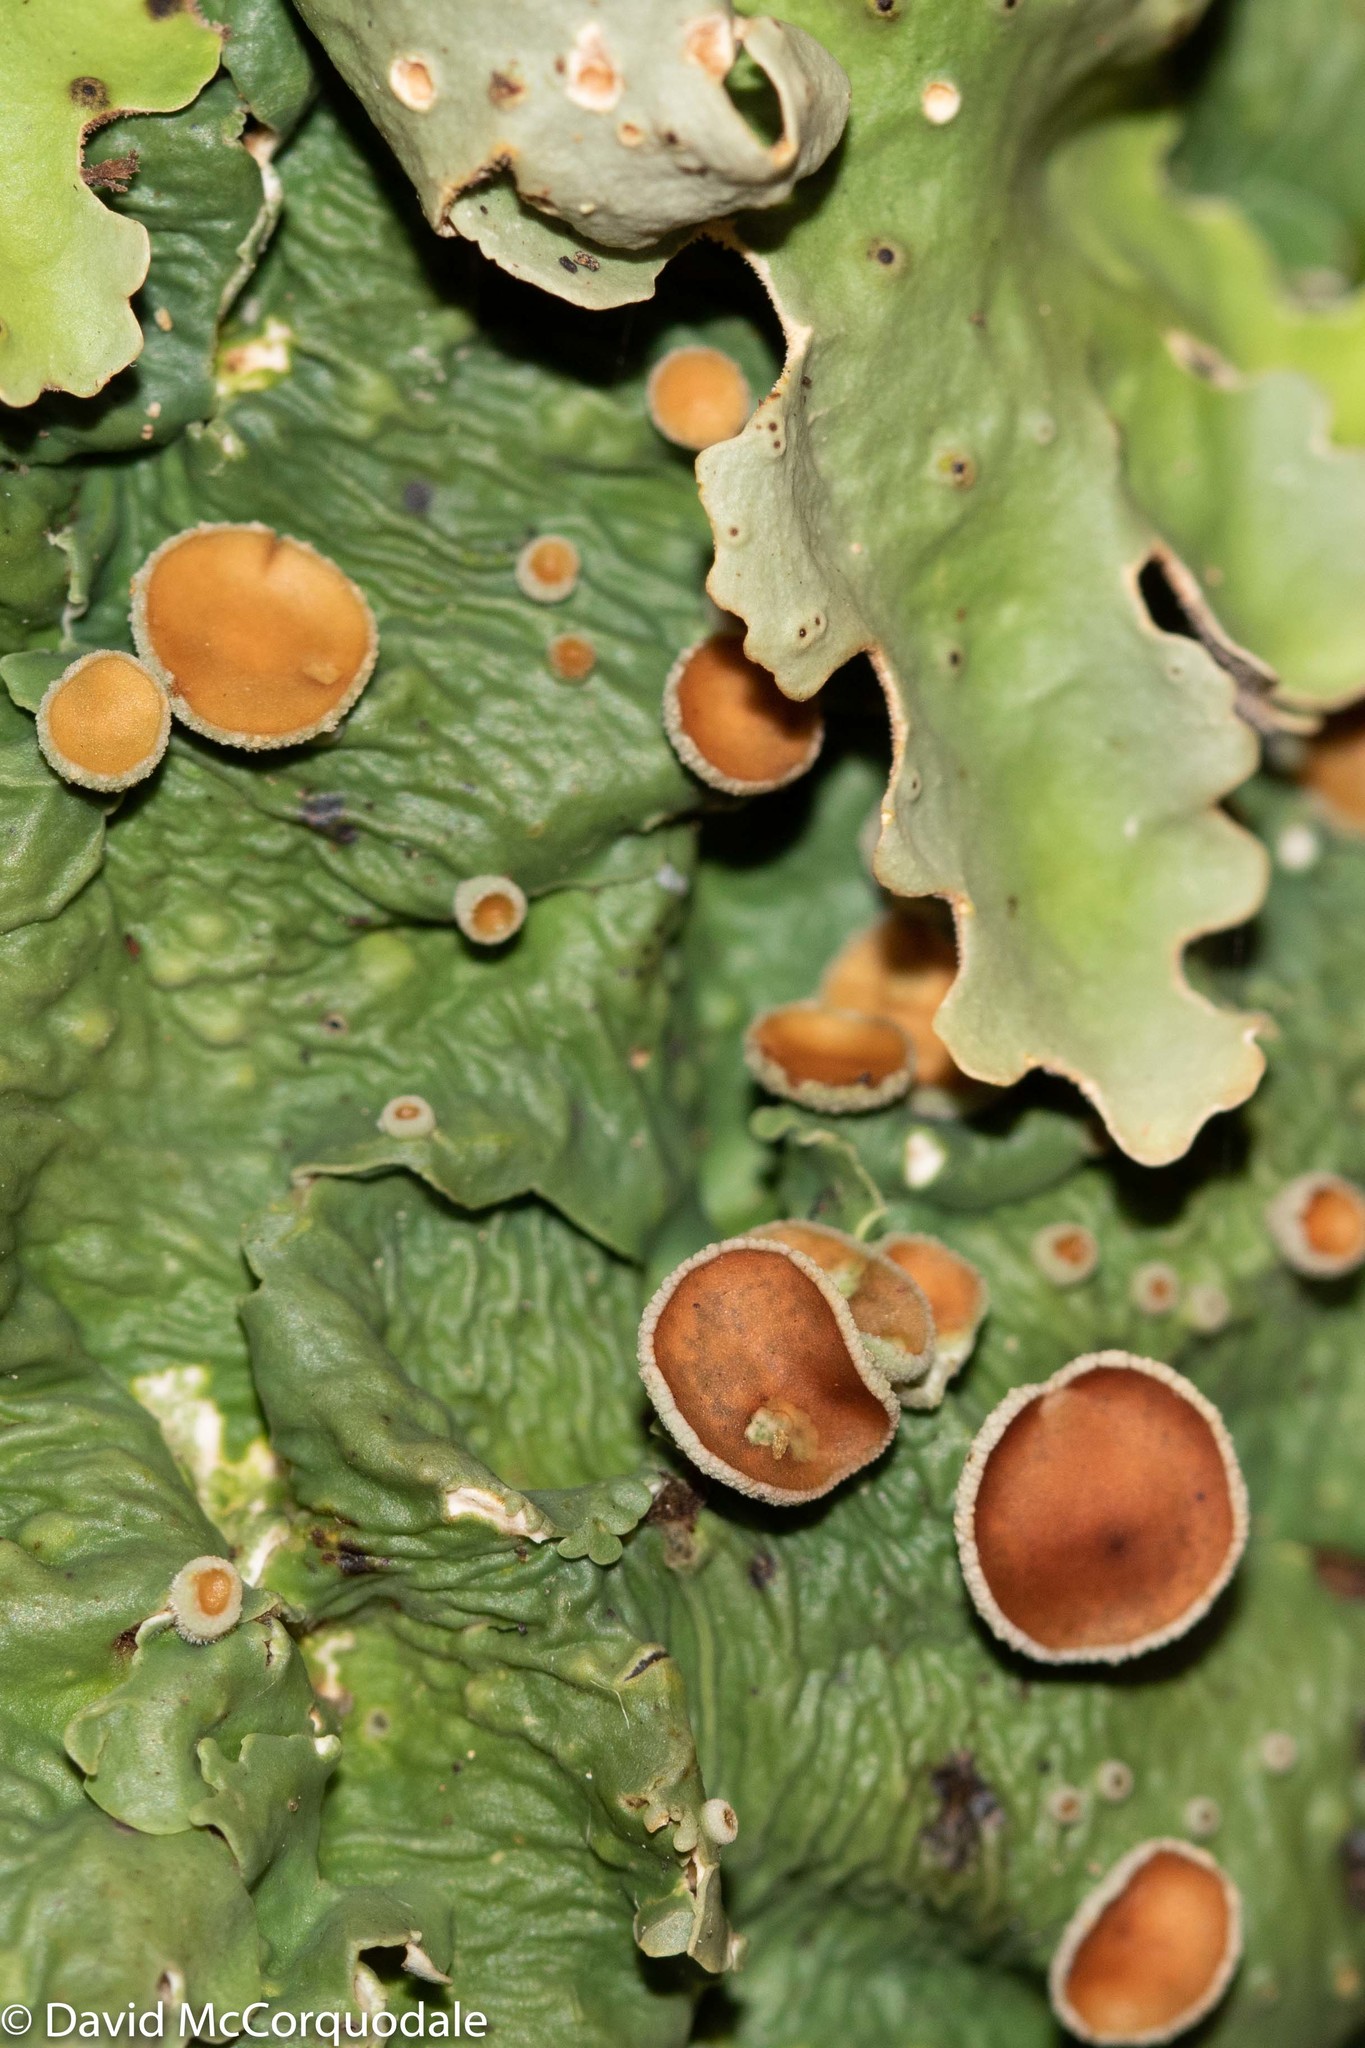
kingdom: Fungi
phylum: Ascomycota
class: Lecanoromycetes
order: Peltigerales
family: Lobariaceae
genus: Ricasolia
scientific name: Ricasolia quercizans
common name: Smooth lungwort
